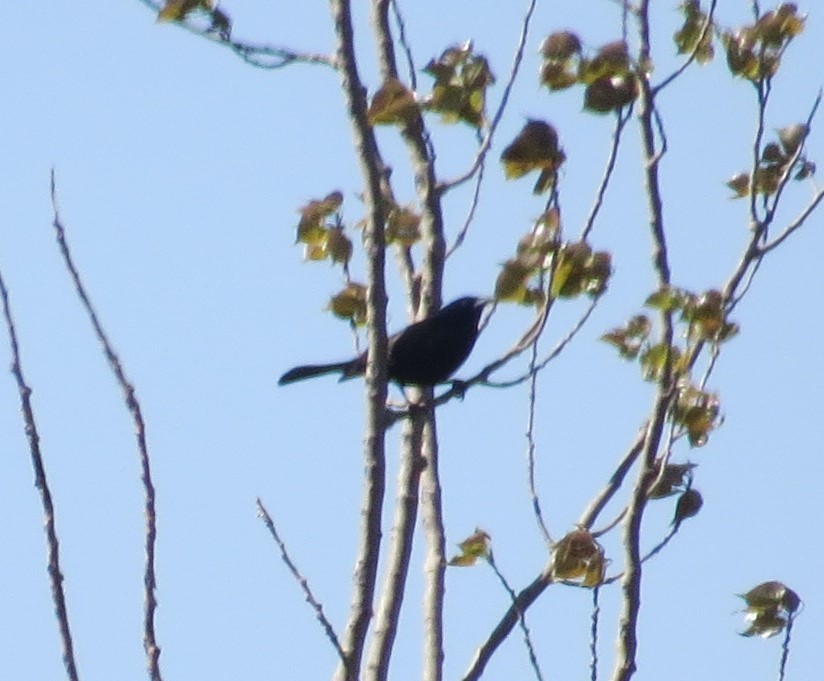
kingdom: Animalia
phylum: Chordata
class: Aves
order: Passeriformes
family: Icteridae
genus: Quiscalus
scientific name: Quiscalus quiscula
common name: Common grackle
